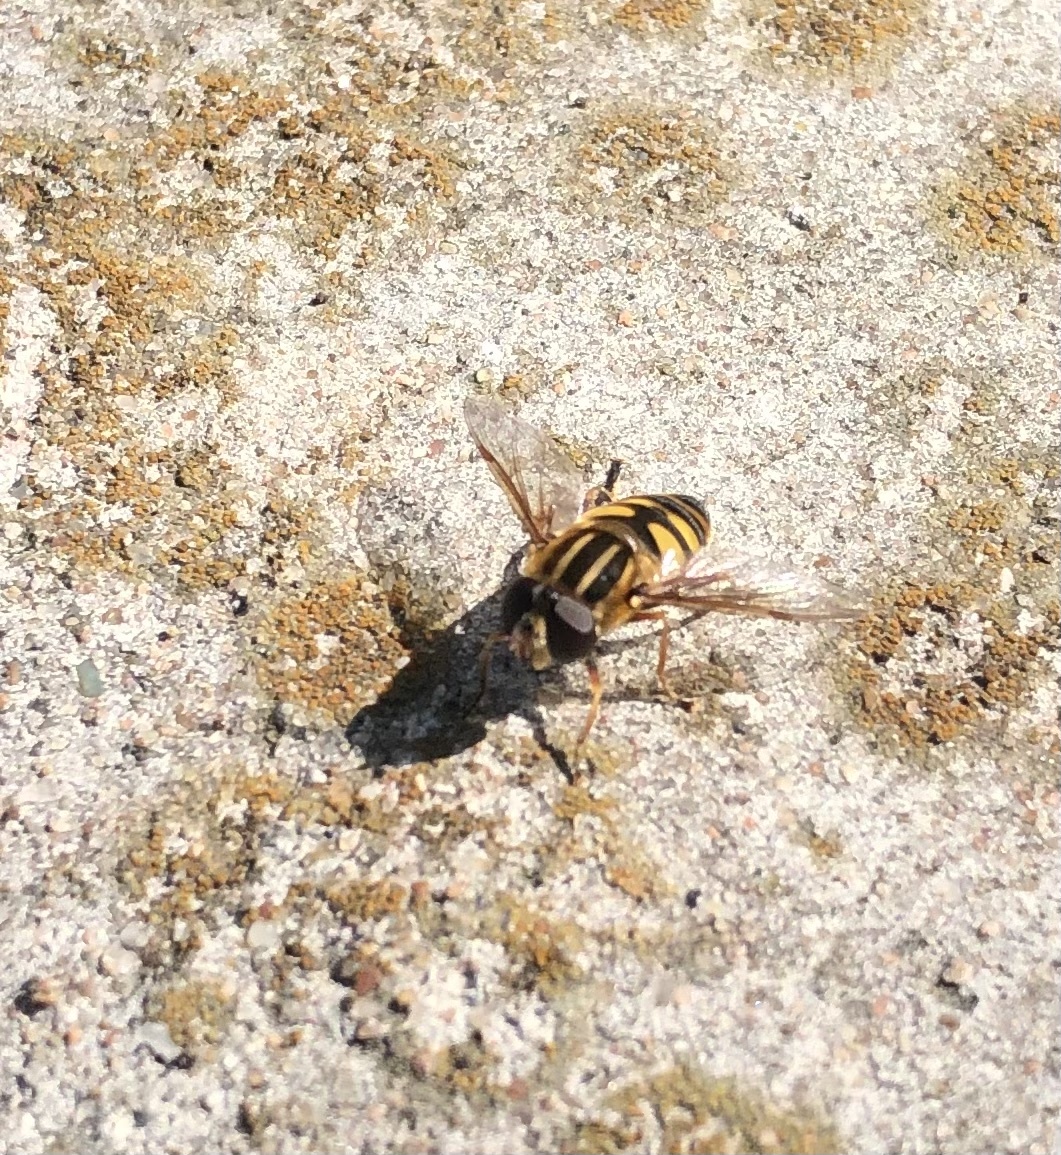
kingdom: Animalia
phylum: Arthropoda
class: Insecta
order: Diptera
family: Syrphidae
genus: Helophilus
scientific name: Helophilus fasciatus
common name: Narrow-headed marsh fly
